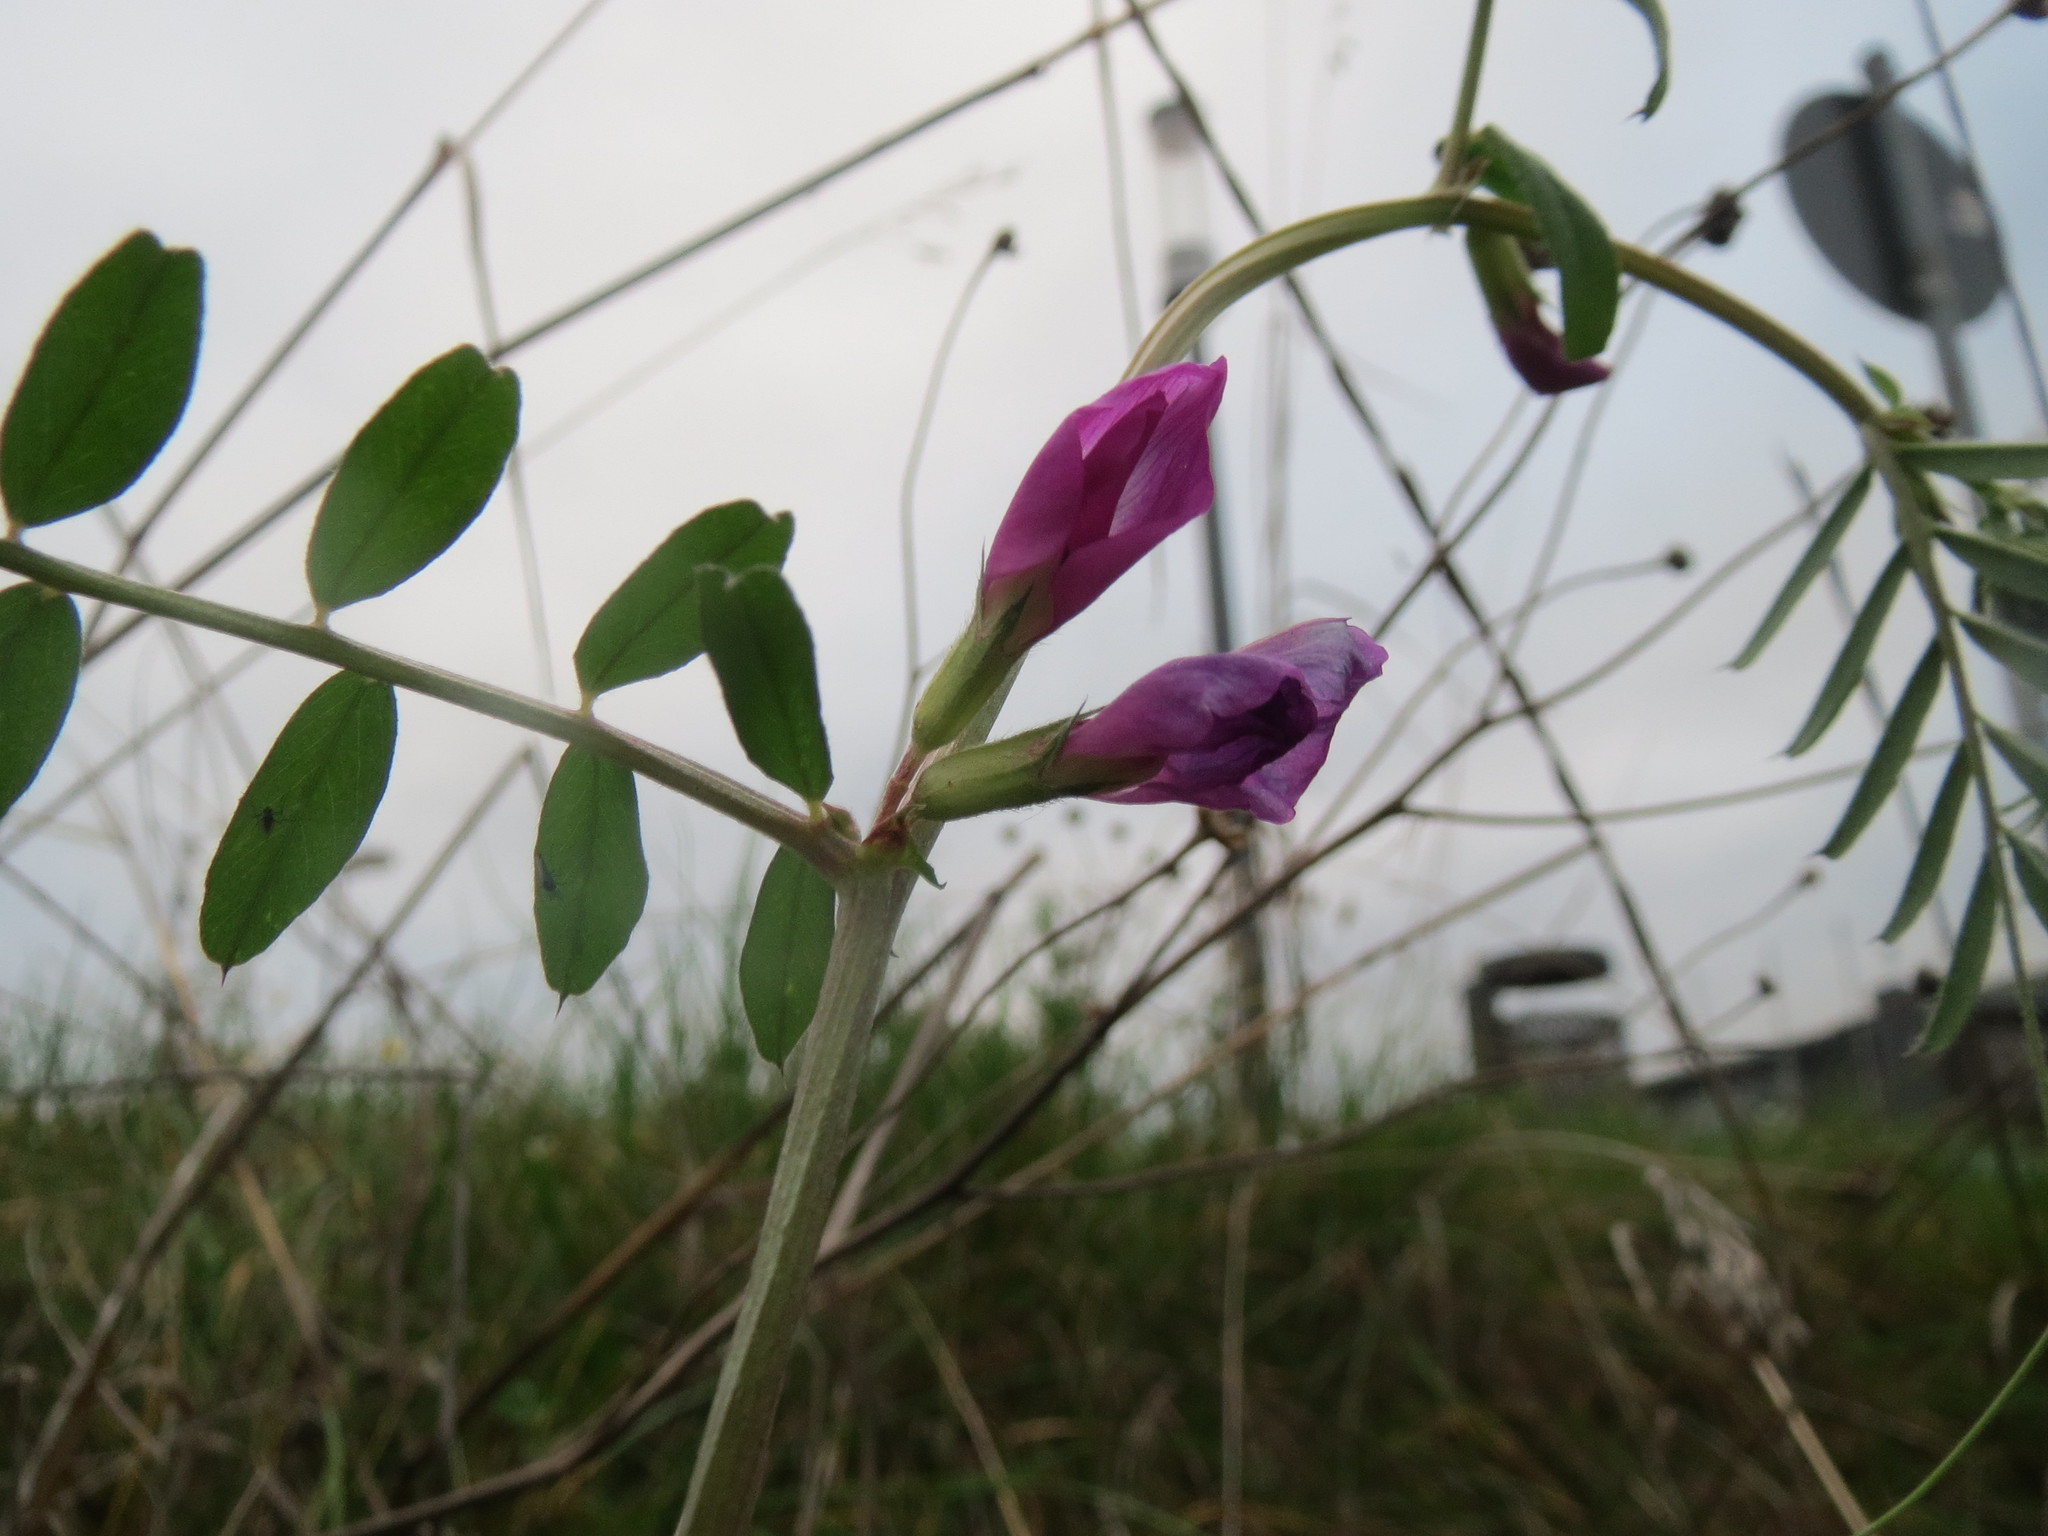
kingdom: Plantae
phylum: Tracheophyta
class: Magnoliopsida
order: Fabales
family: Fabaceae
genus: Vicia
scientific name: Vicia sativa
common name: Garden vetch
